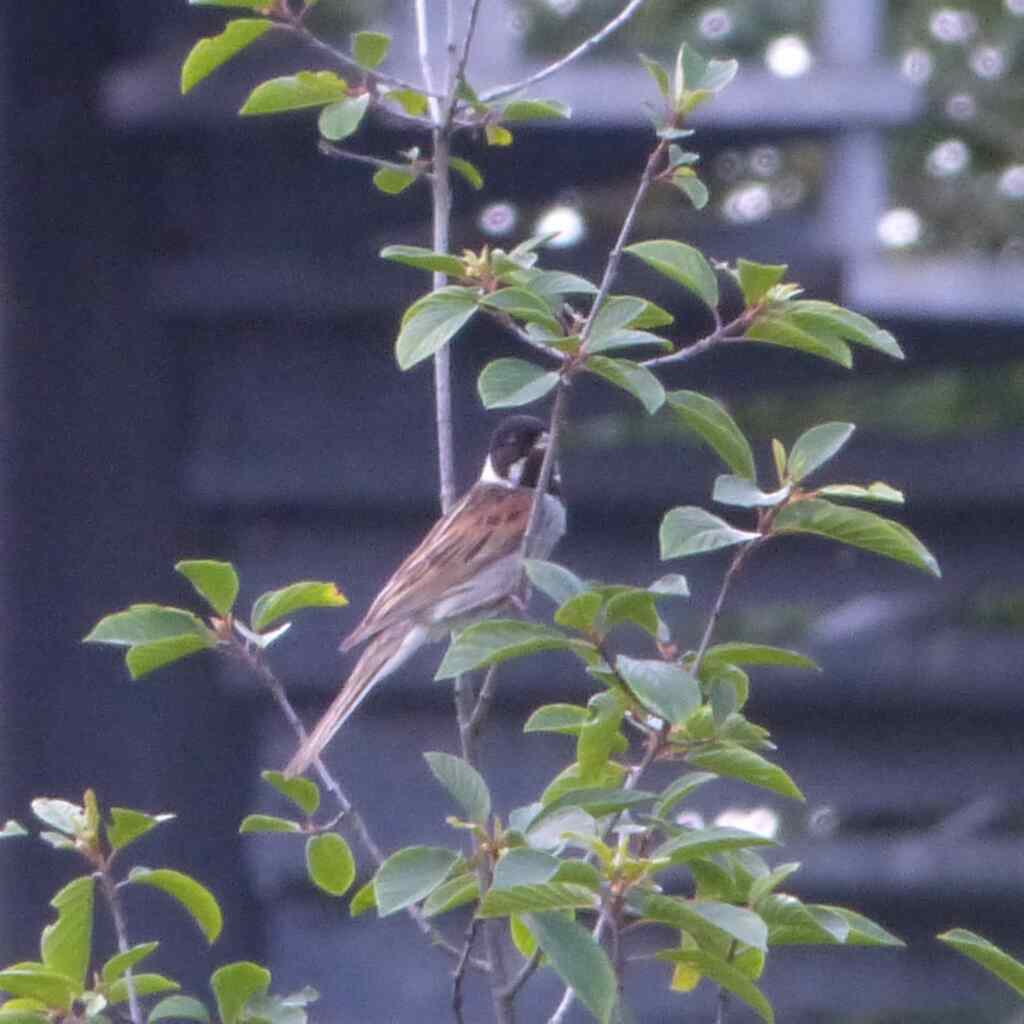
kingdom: Animalia
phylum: Chordata
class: Aves
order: Passeriformes
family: Emberizidae
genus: Emberiza
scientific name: Emberiza schoeniclus
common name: Reed bunting
